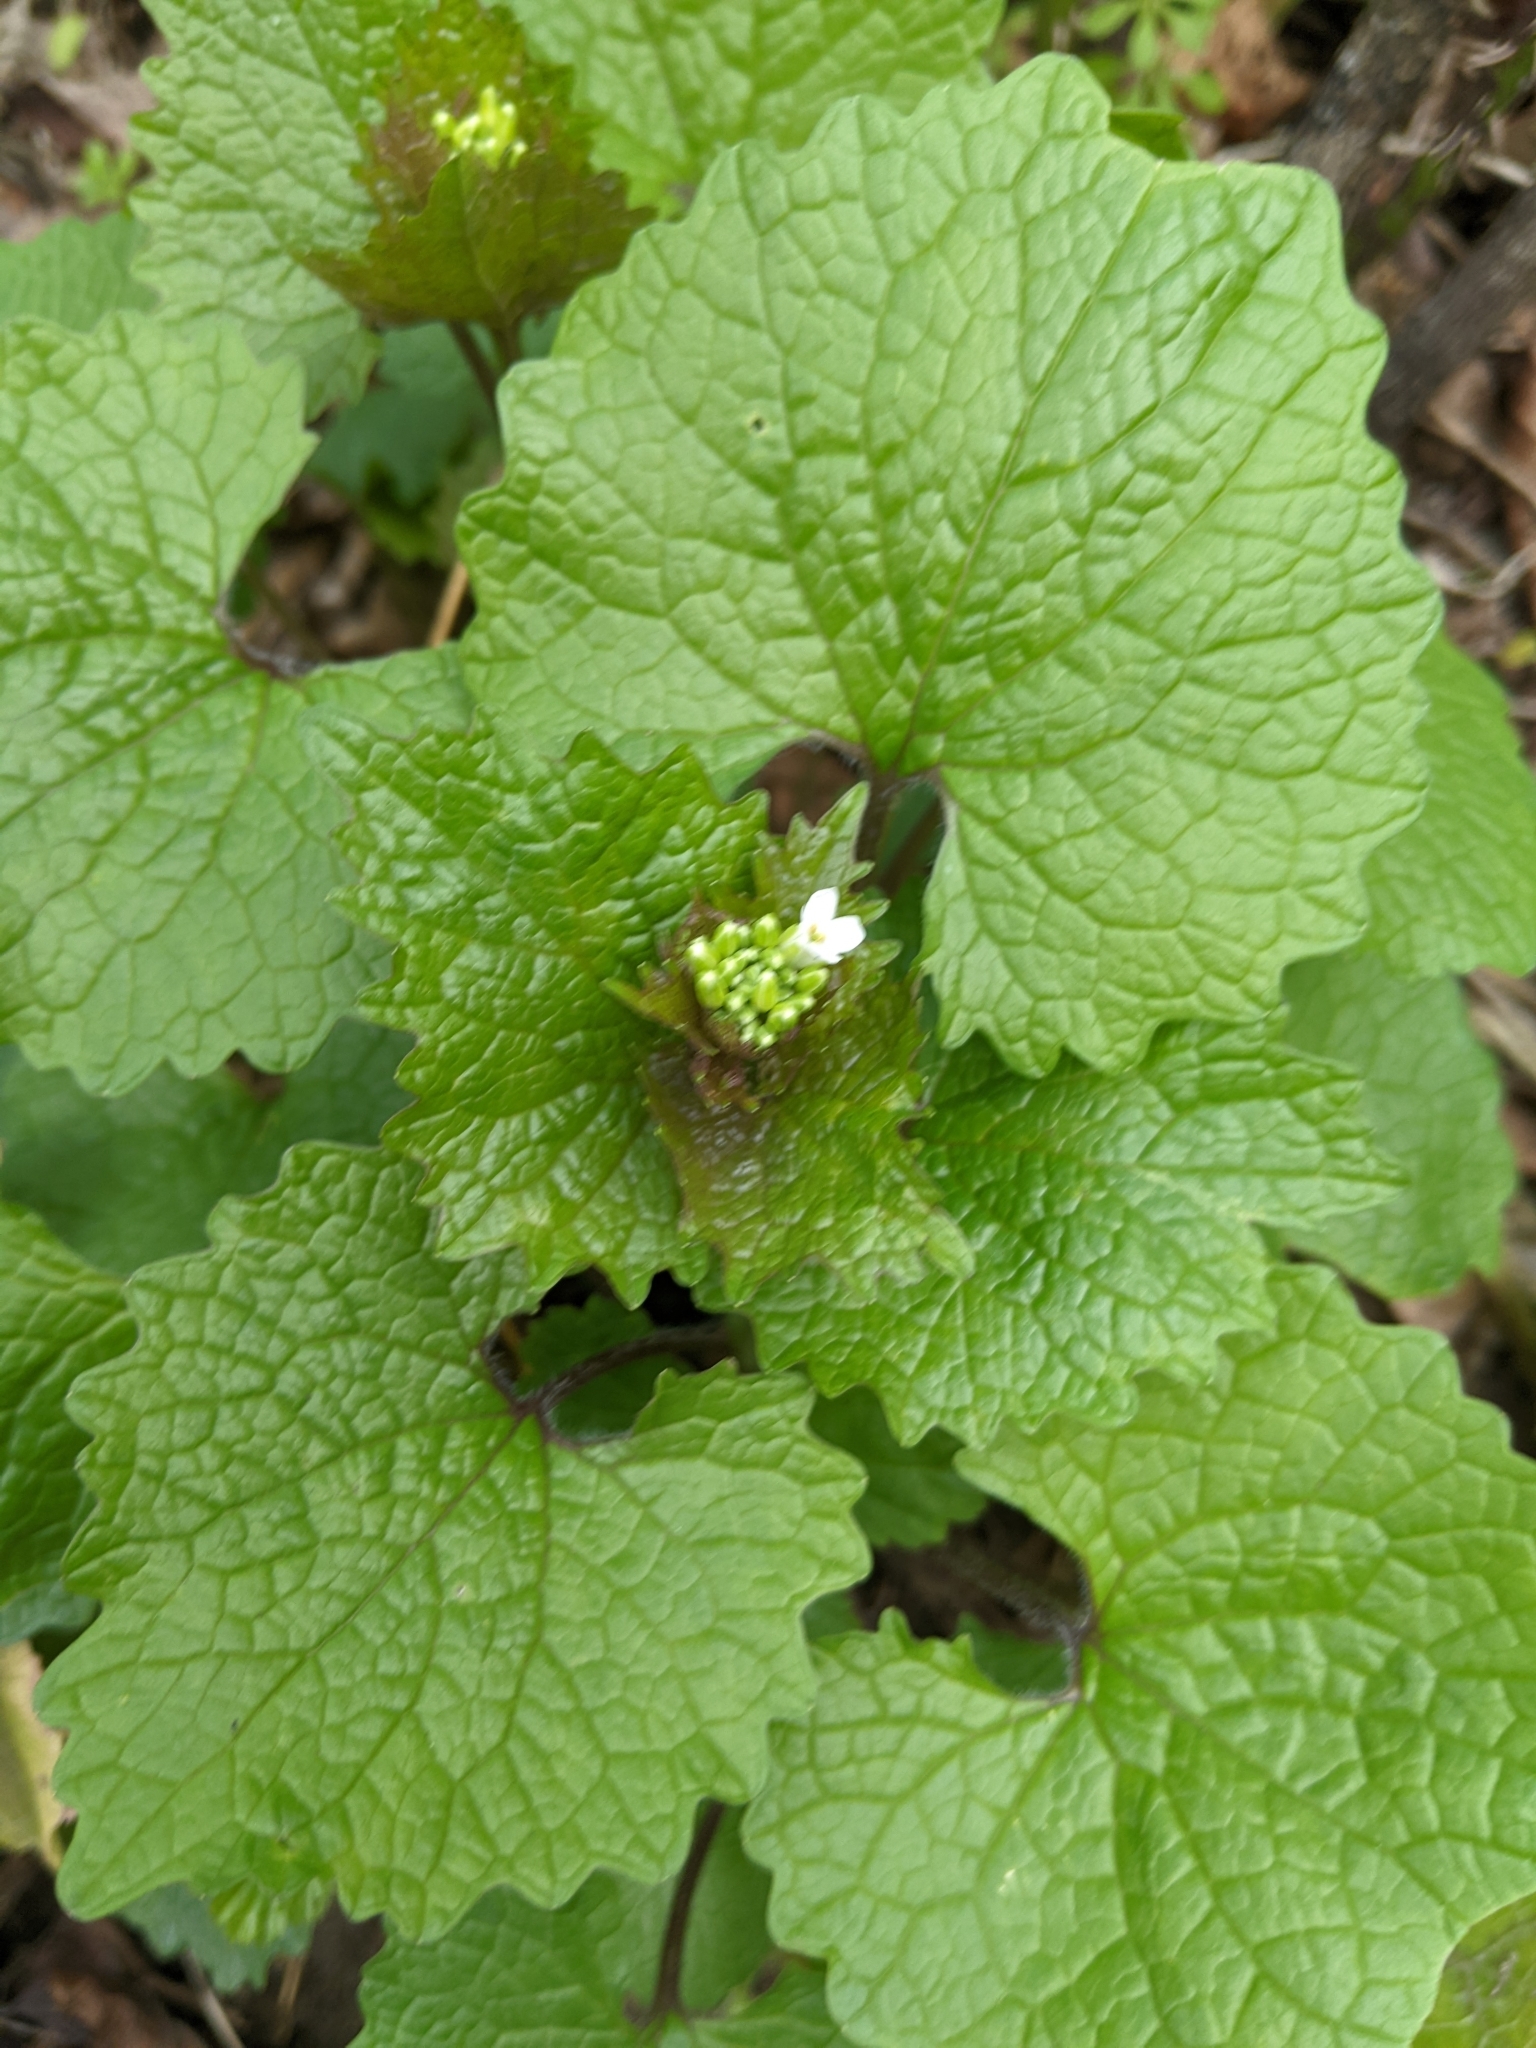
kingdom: Plantae
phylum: Tracheophyta
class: Magnoliopsida
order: Brassicales
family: Brassicaceae
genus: Alliaria
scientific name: Alliaria petiolata
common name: Garlic mustard
